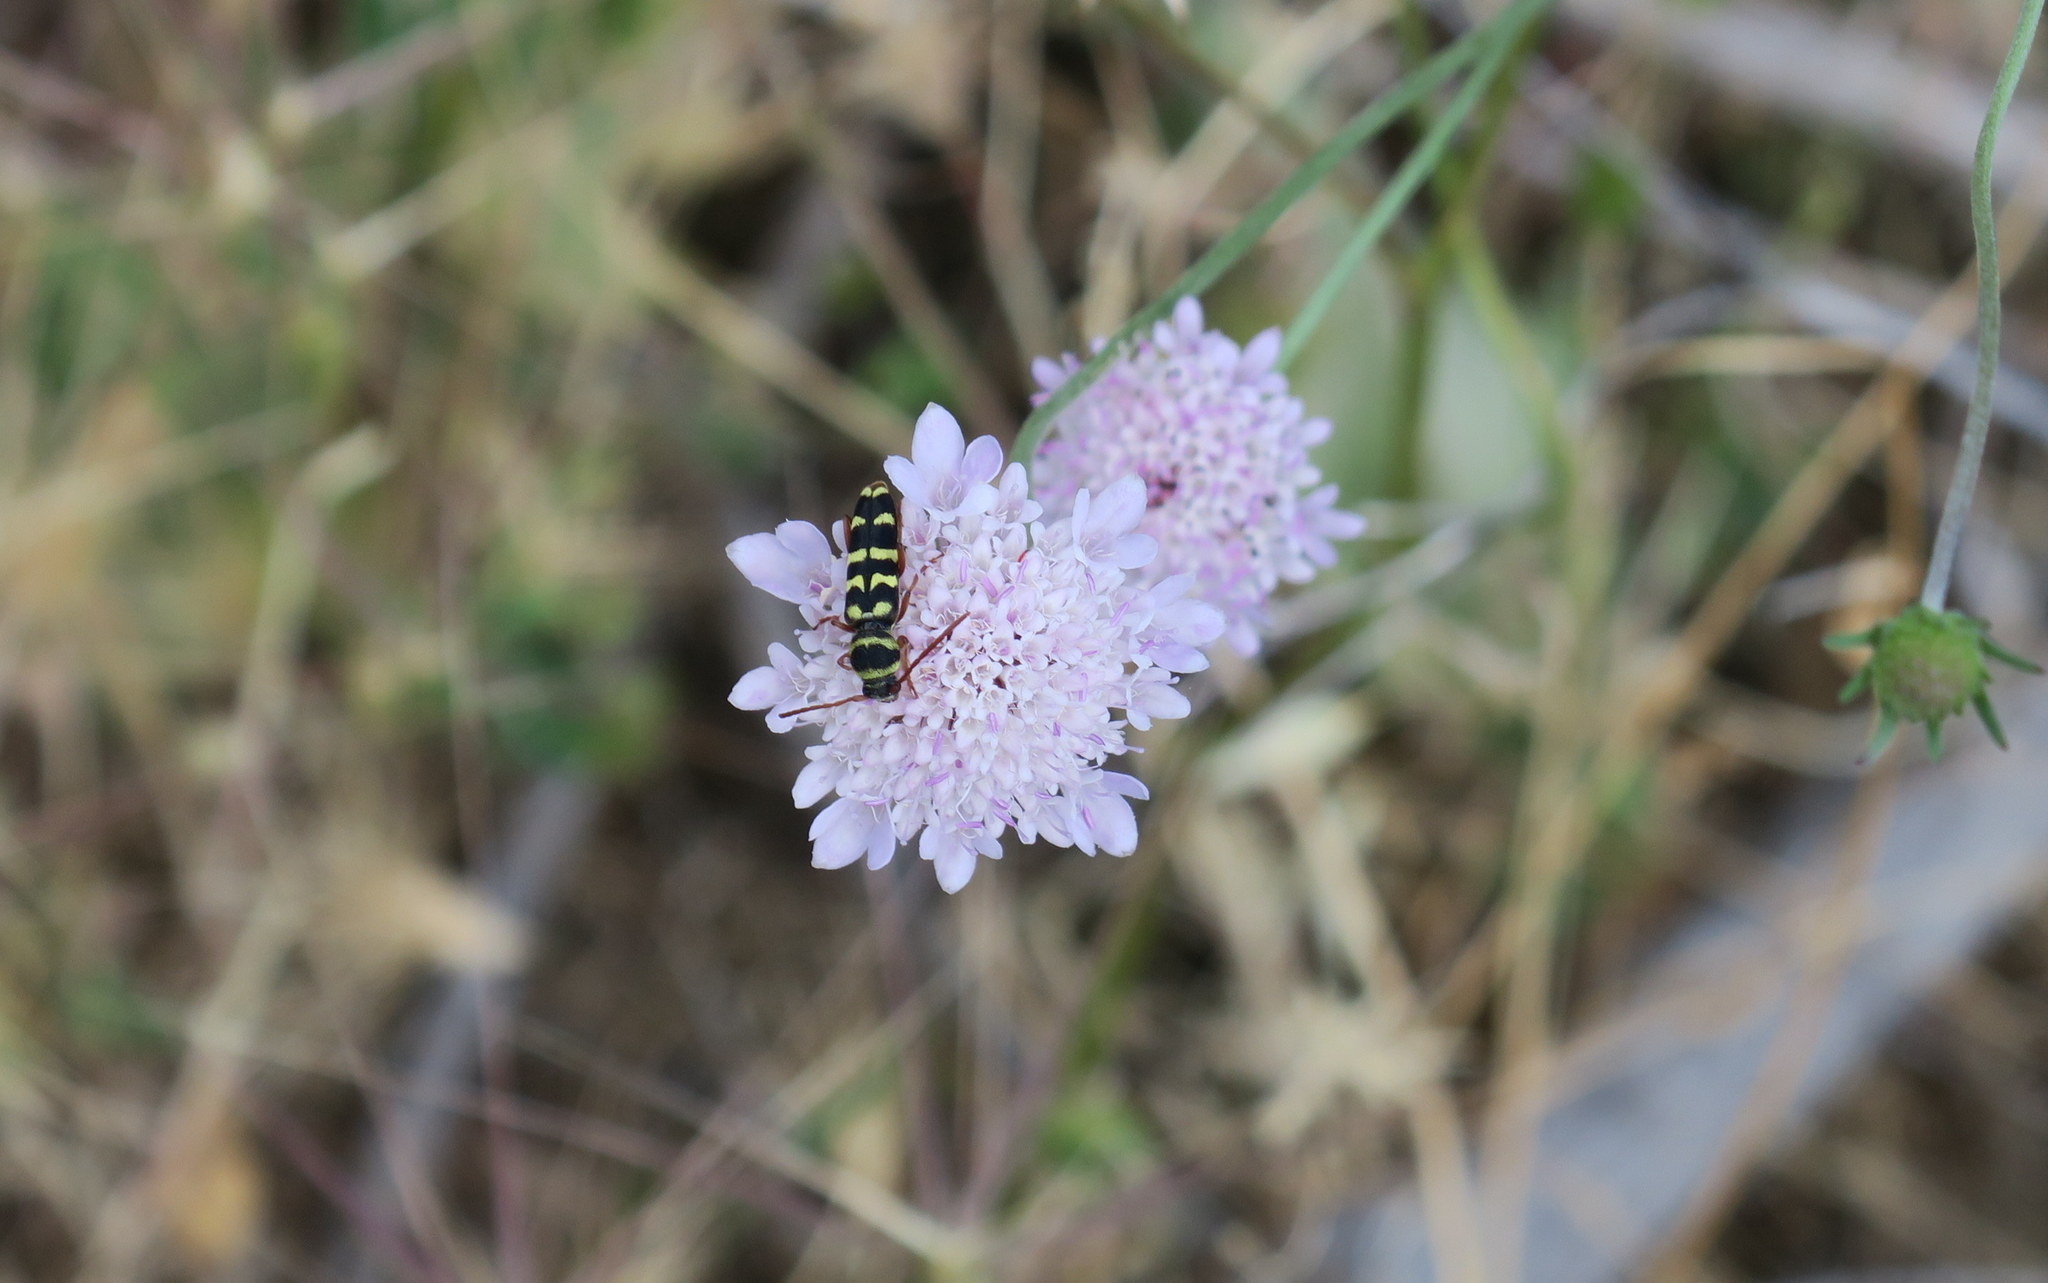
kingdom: Animalia
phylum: Arthropoda
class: Insecta
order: Coleoptera
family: Cerambycidae
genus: Plagionotus
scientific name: Plagionotus floralis
